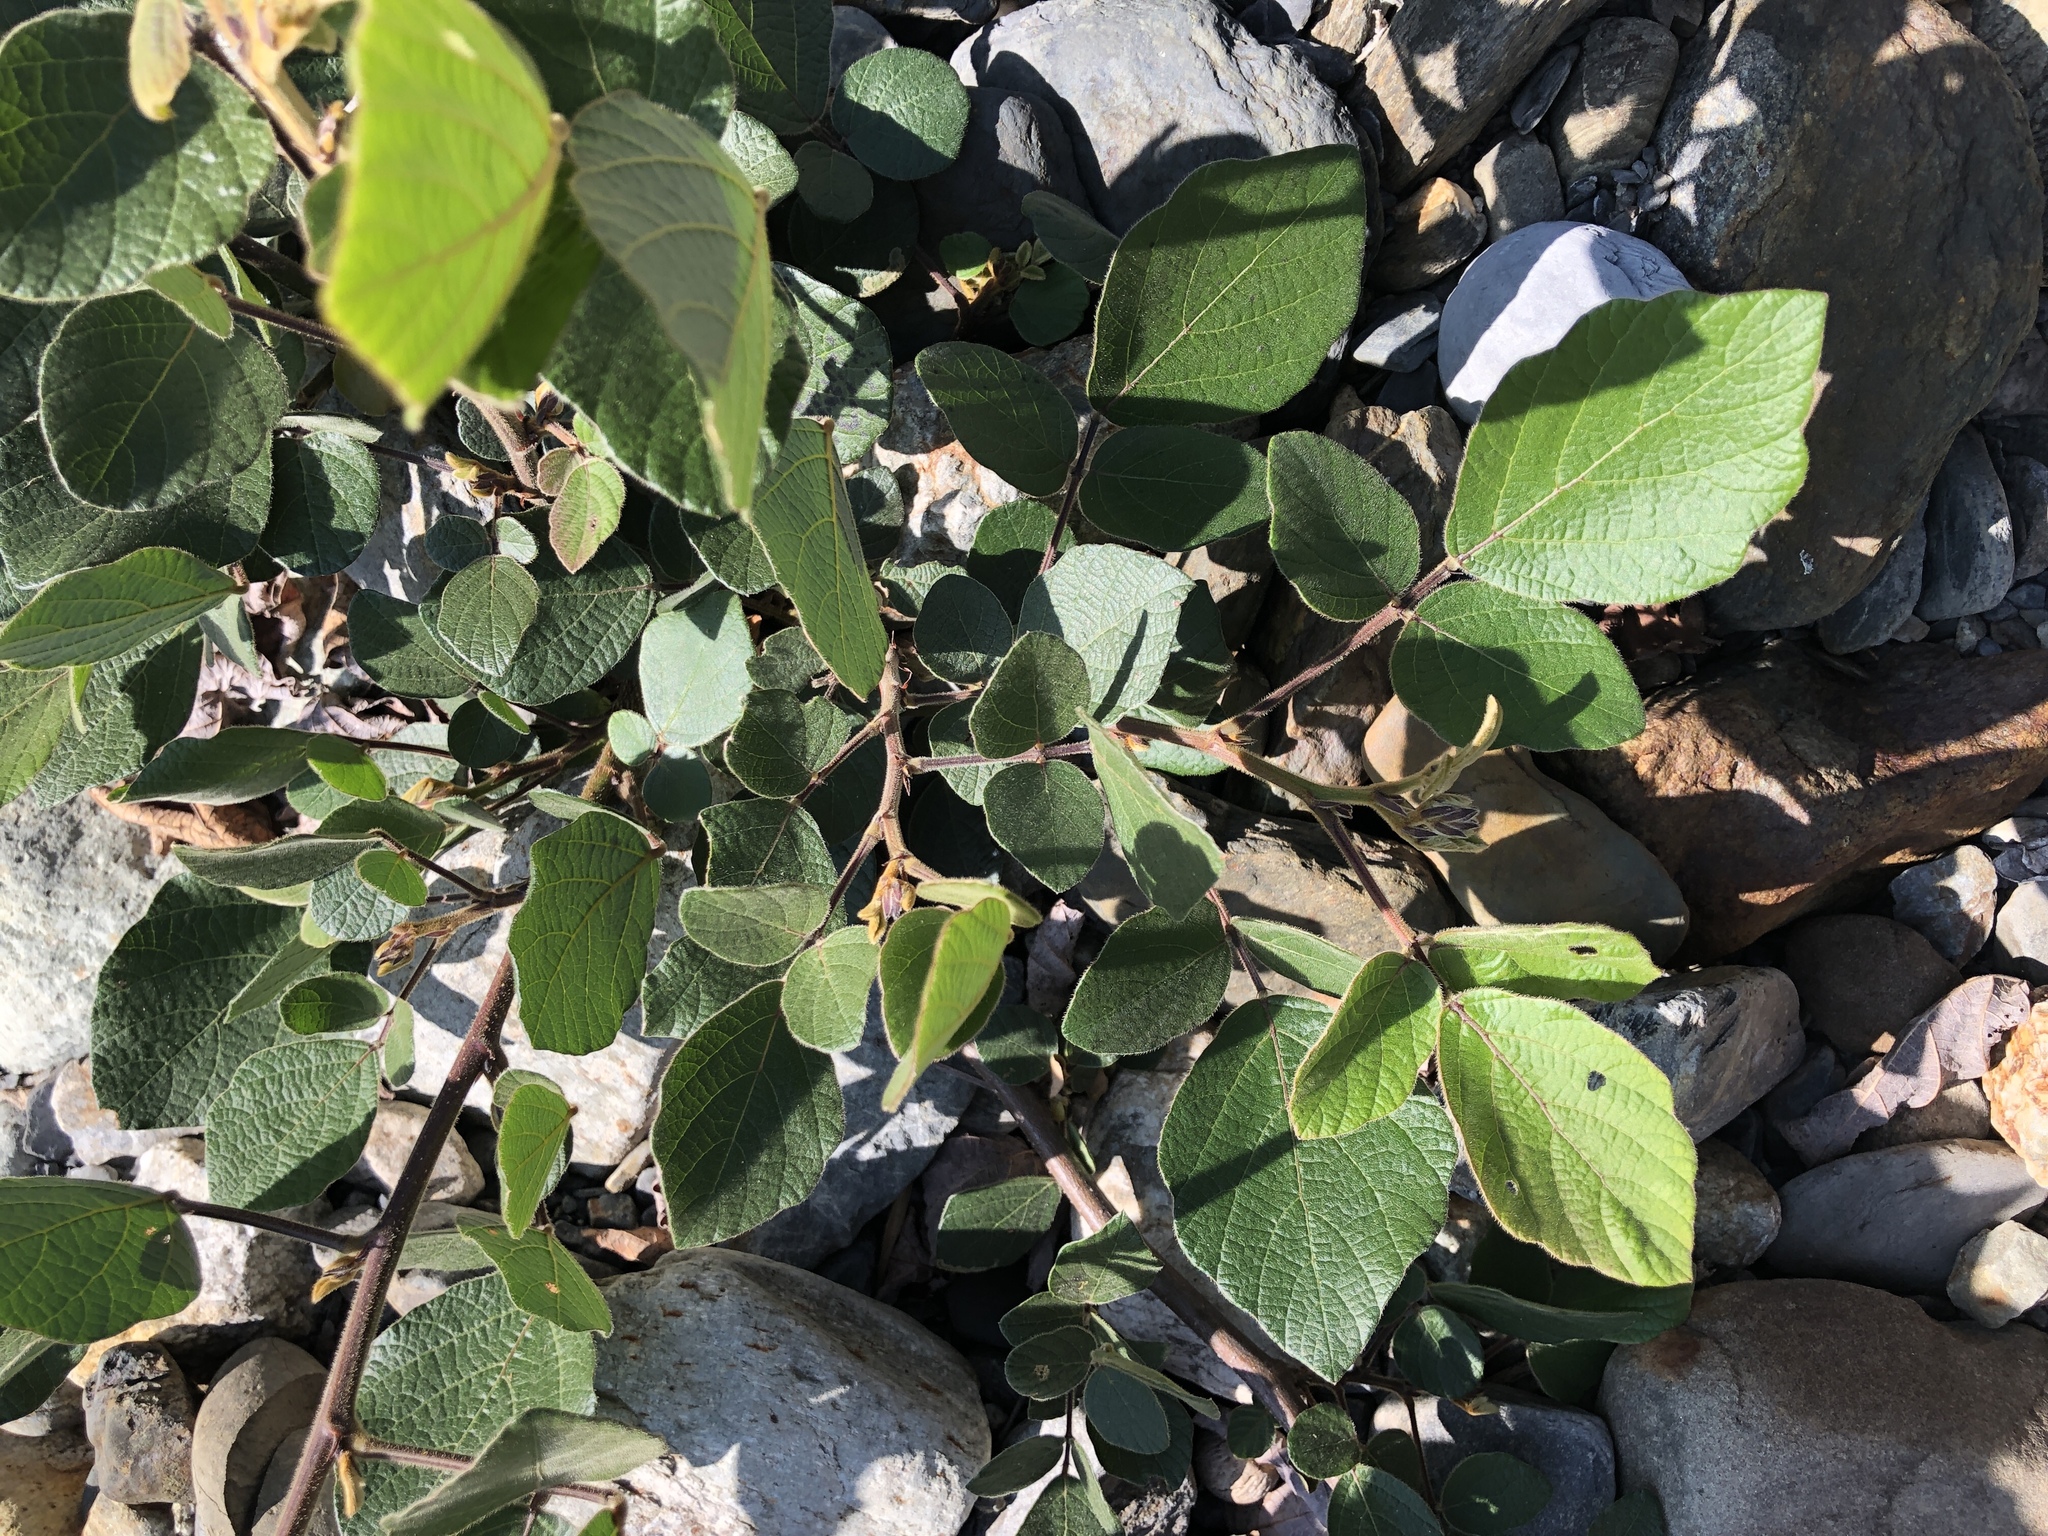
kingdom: Plantae
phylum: Tracheophyta
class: Magnoliopsida
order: Fabales
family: Fabaceae
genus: Puhuaea
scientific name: Puhuaea sequax
